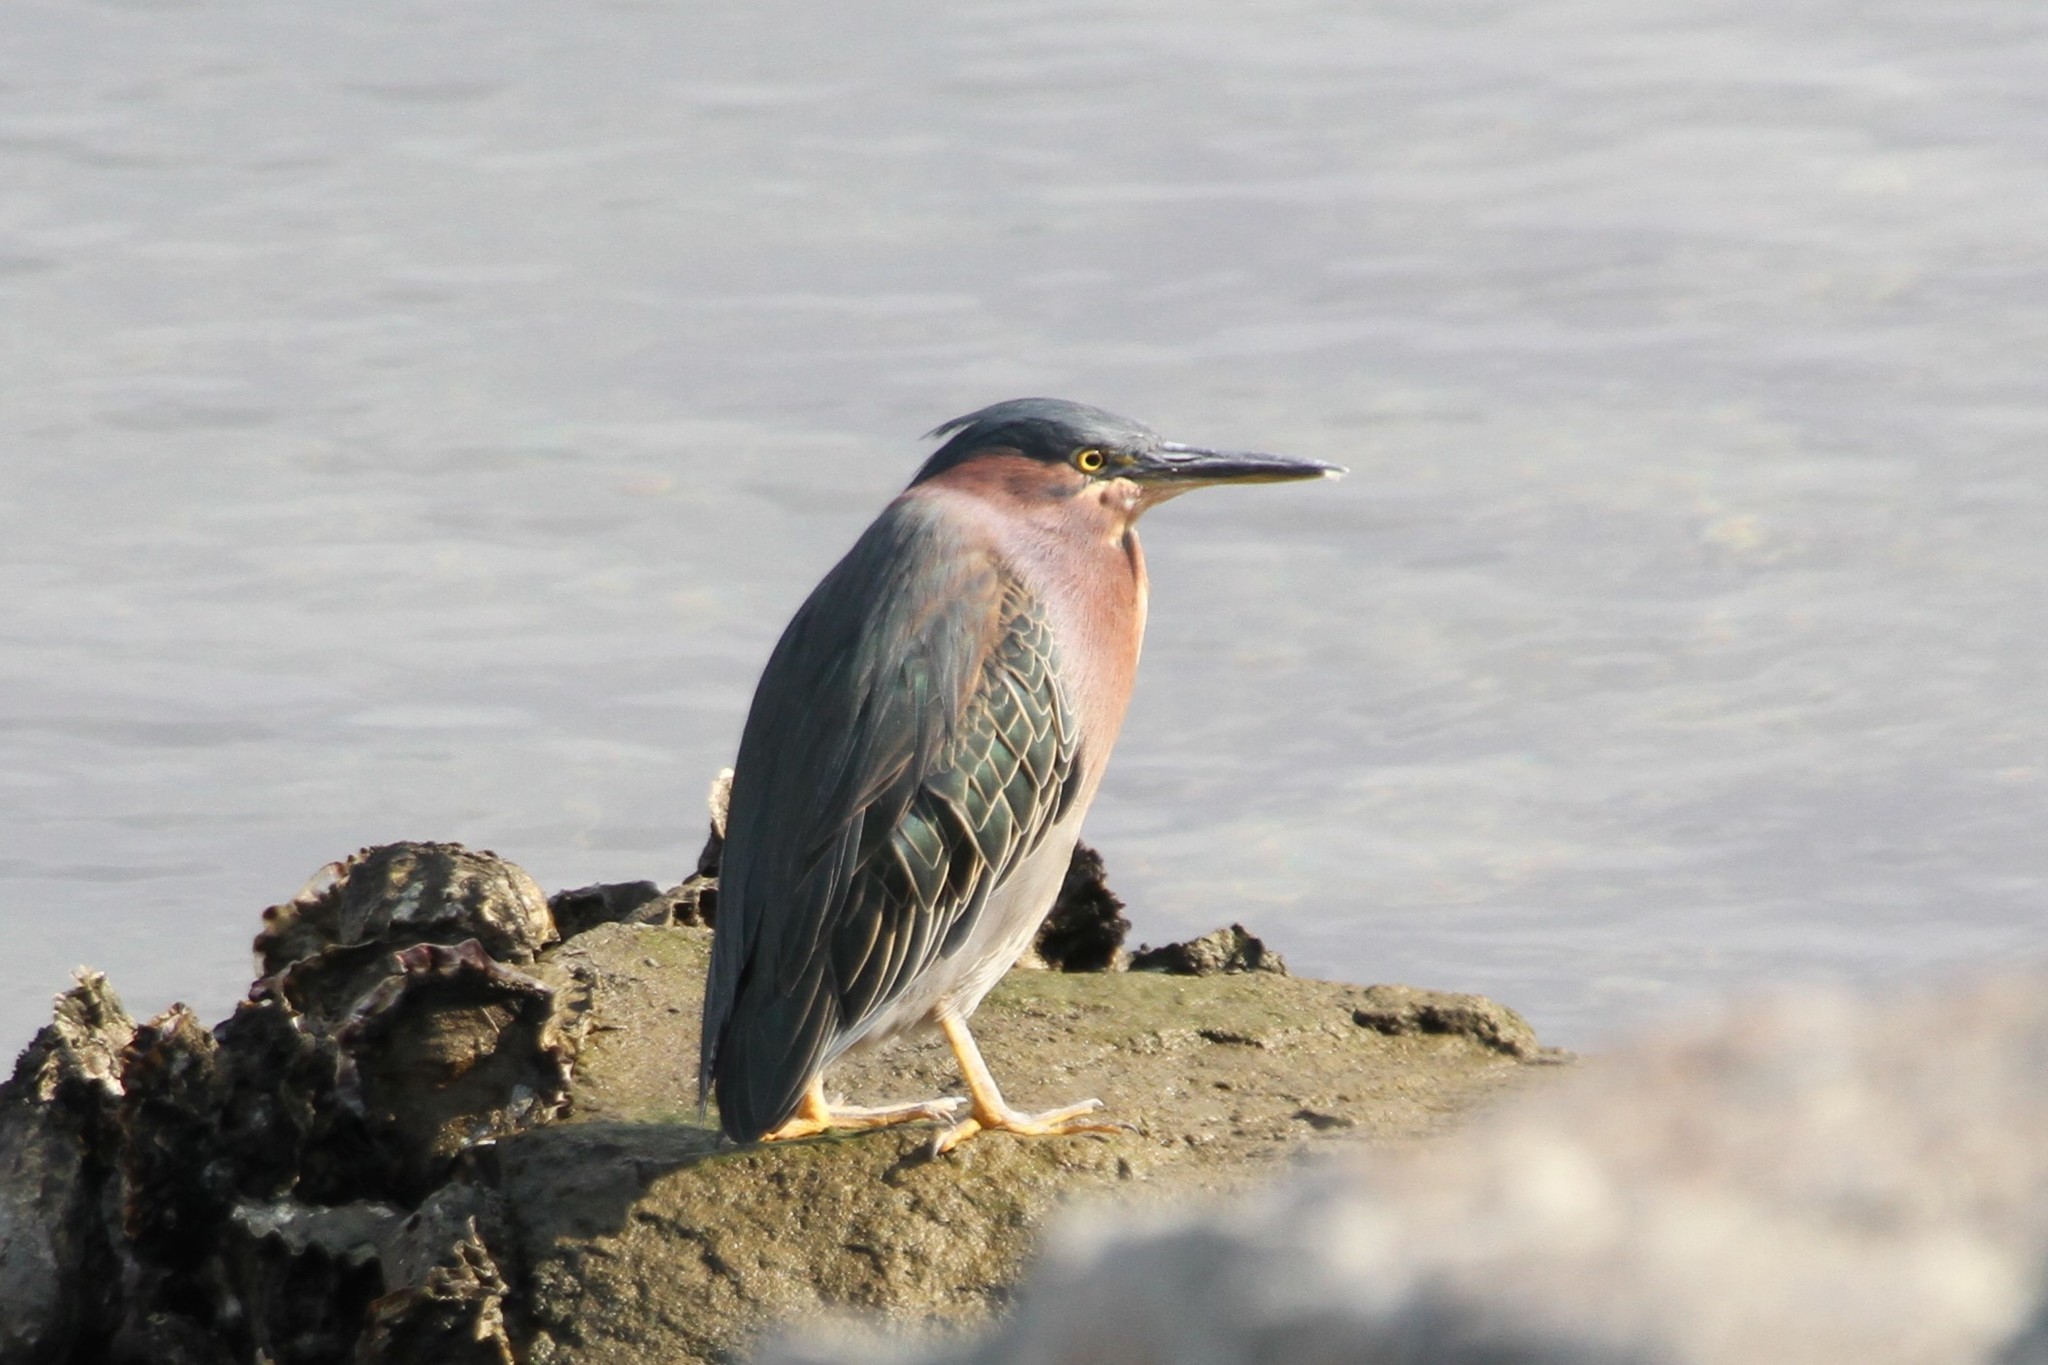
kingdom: Animalia
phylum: Chordata
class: Aves
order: Pelecaniformes
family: Ardeidae
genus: Butorides
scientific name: Butorides virescens
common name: Green heron
